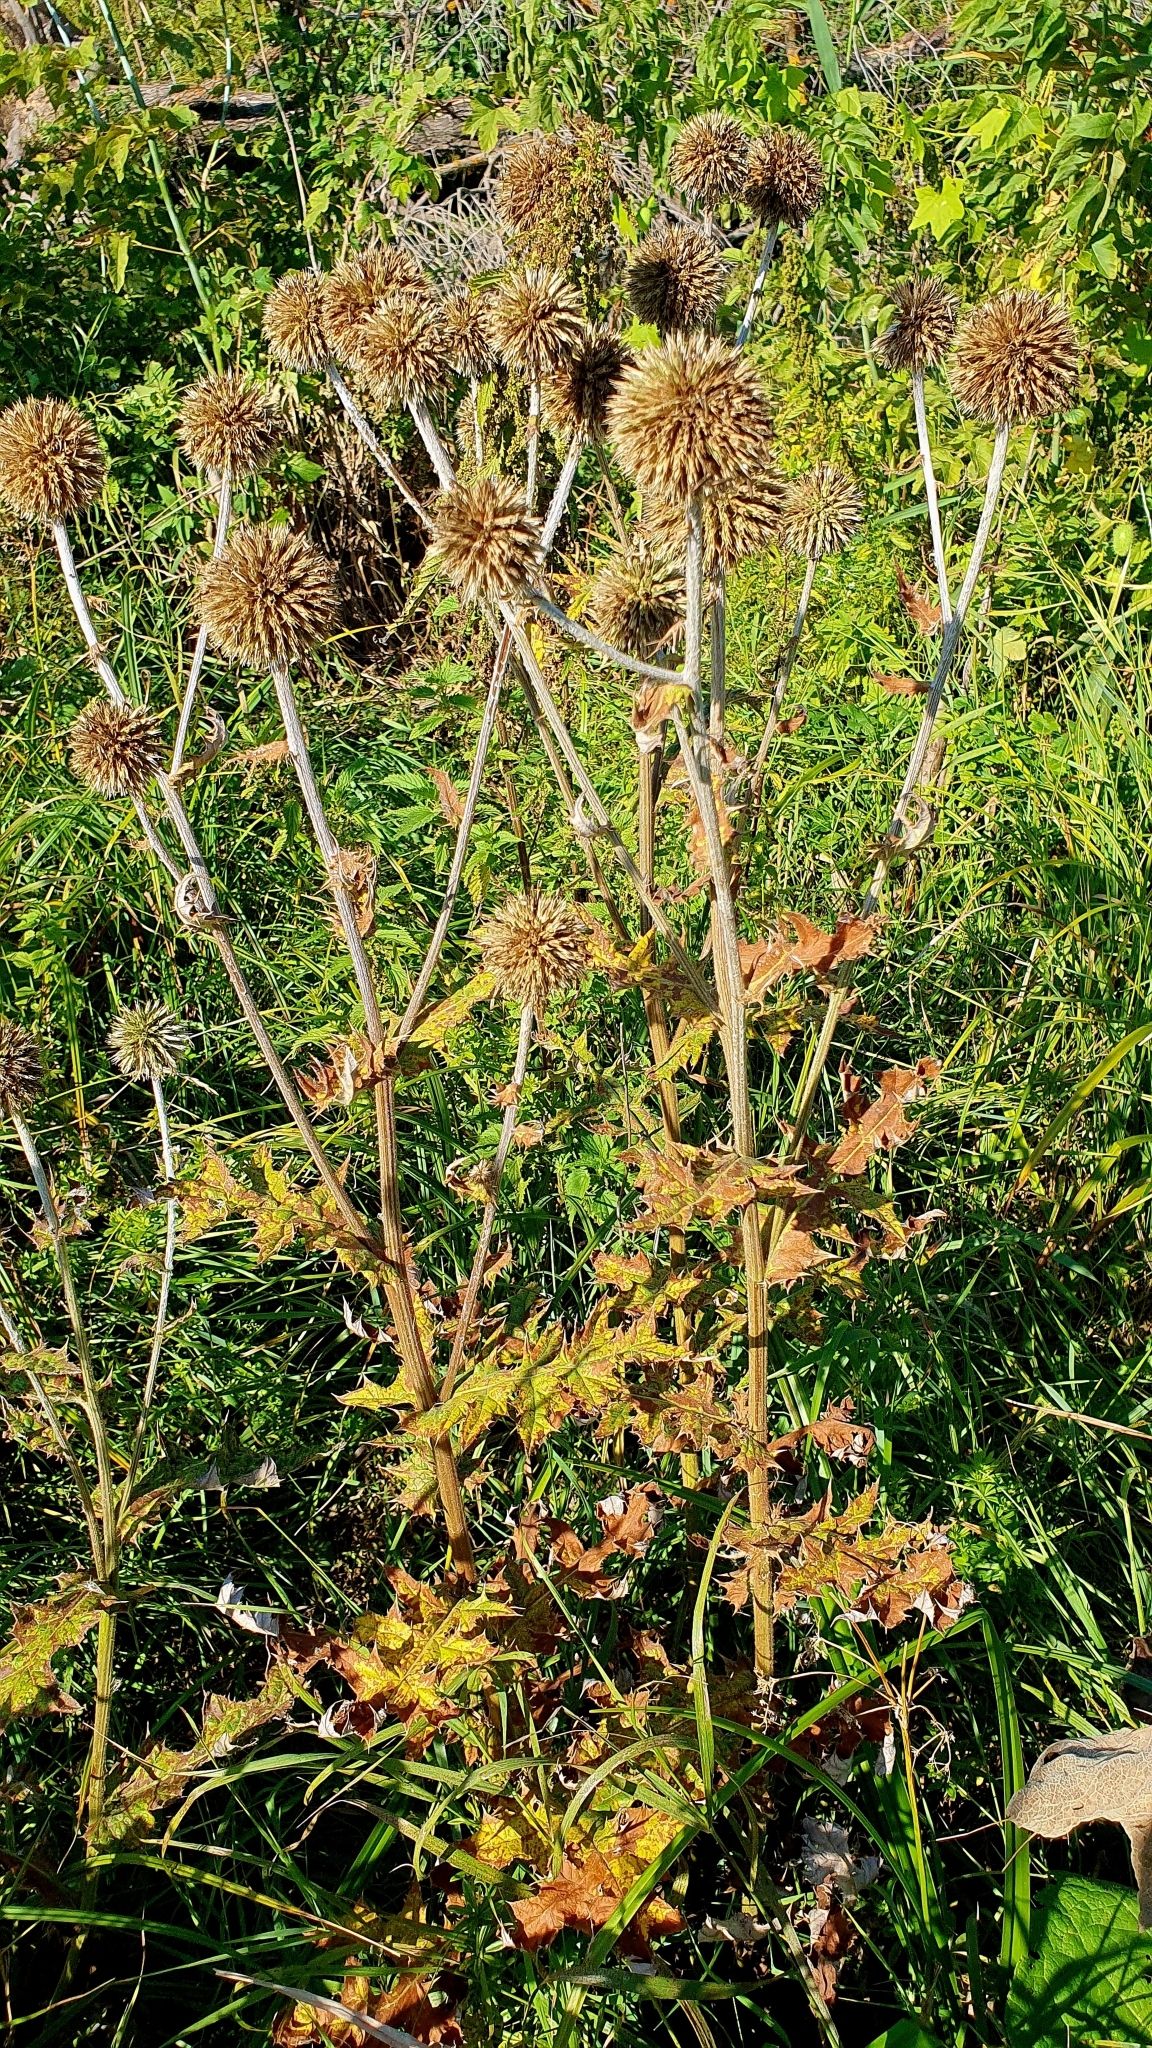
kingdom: Plantae
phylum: Tracheophyta
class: Magnoliopsida
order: Asterales
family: Asteraceae
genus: Echinops
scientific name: Echinops sphaerocephalus
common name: Glandular globe-thistle
